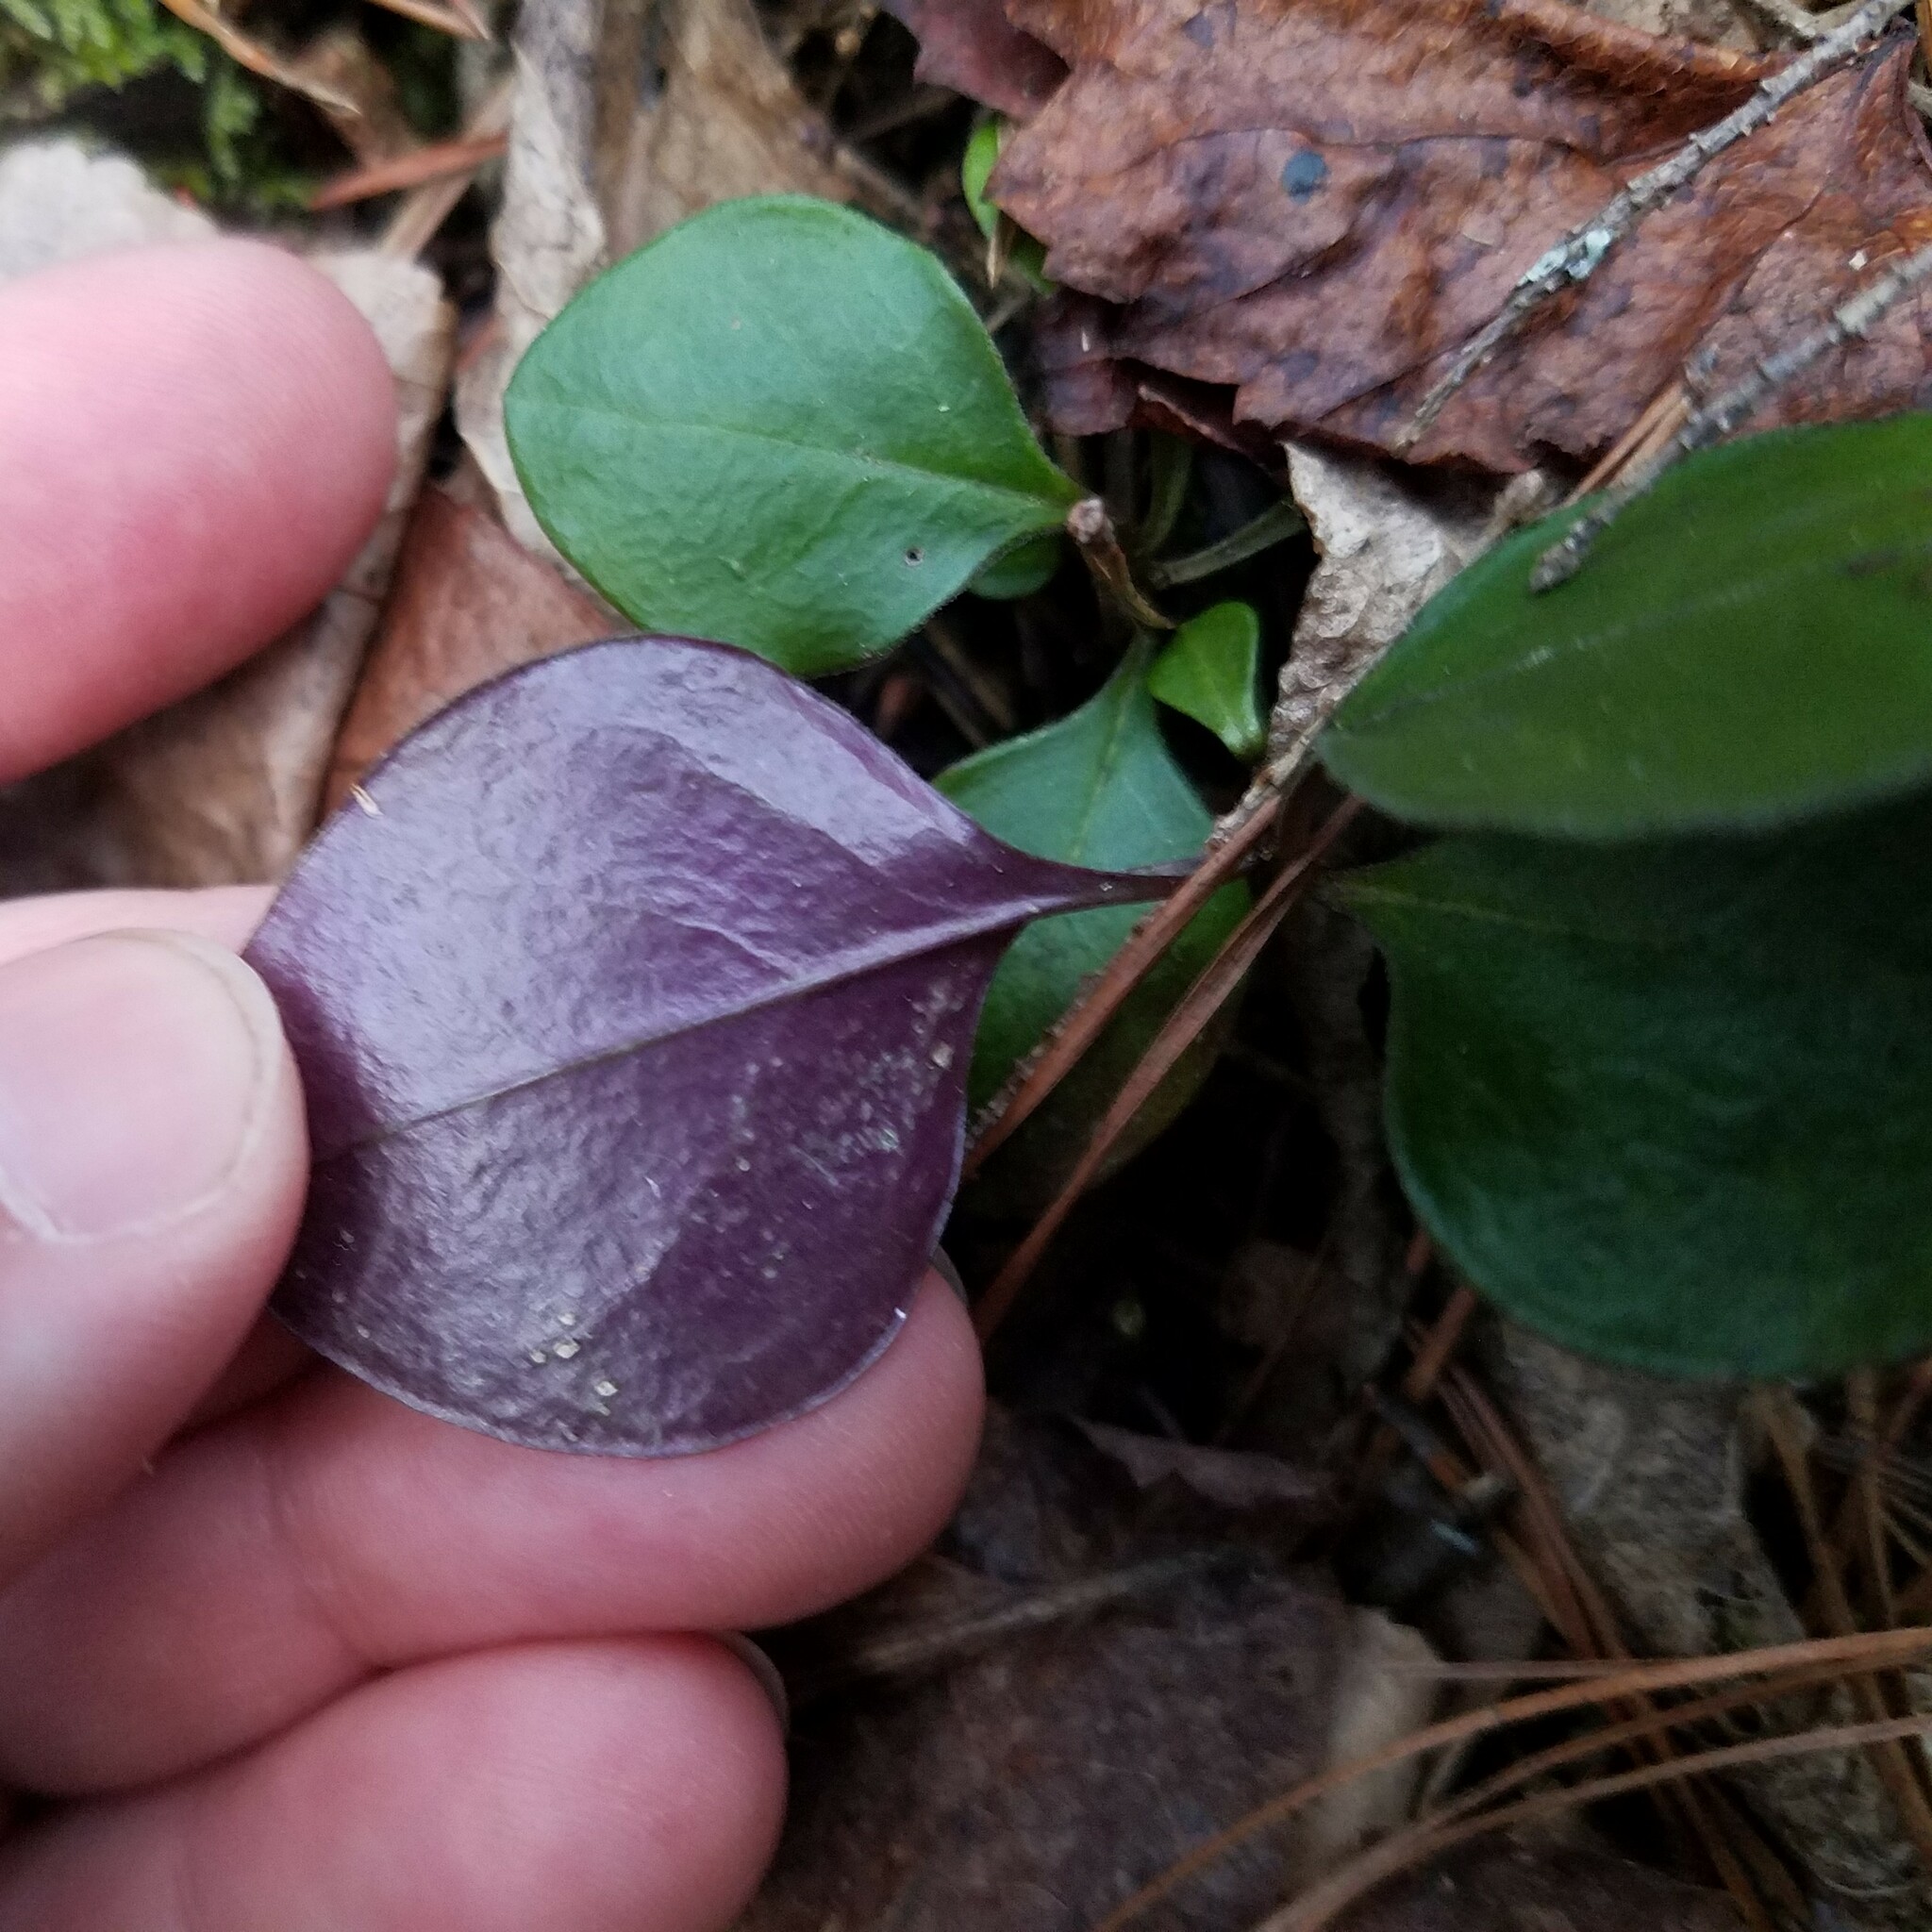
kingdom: Plantae
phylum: Tracheophyta
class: Magnoliopsida
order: Fabales
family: Polygalaceae
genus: Polygaloides
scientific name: Polygaloides paucifolia
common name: Bird-on-the-wing
